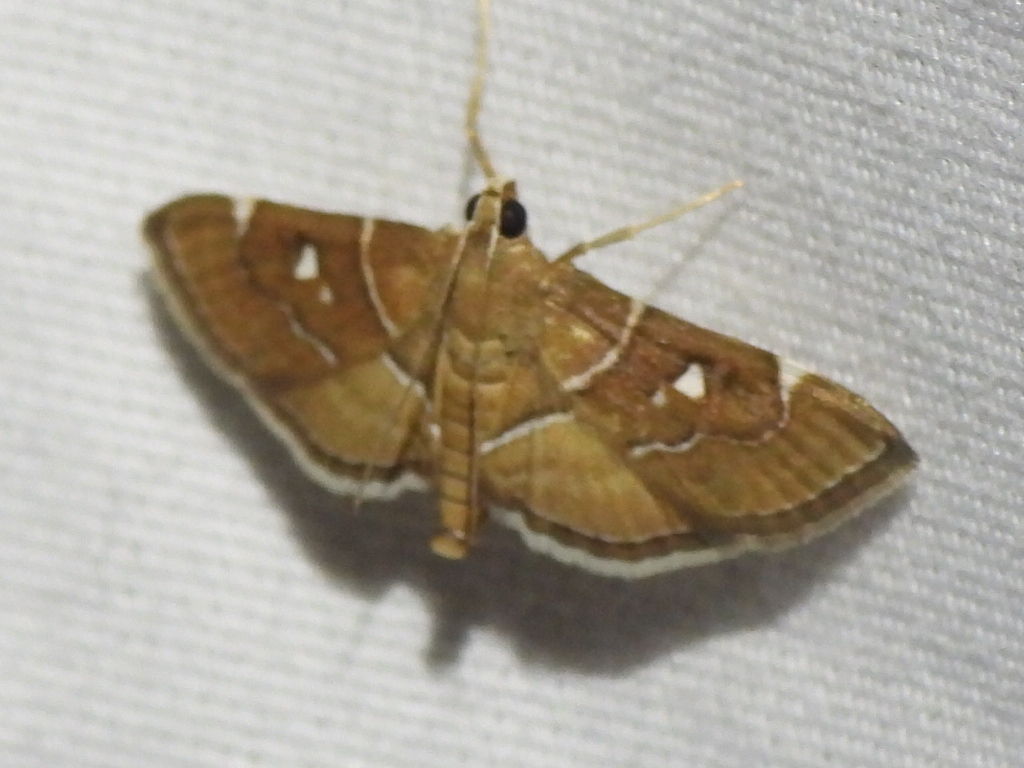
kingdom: Animalia
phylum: Arthropoda
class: Insecta
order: Lepidoptera
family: Crambidae
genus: Lamprosema
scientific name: Lamprosema victoriae
